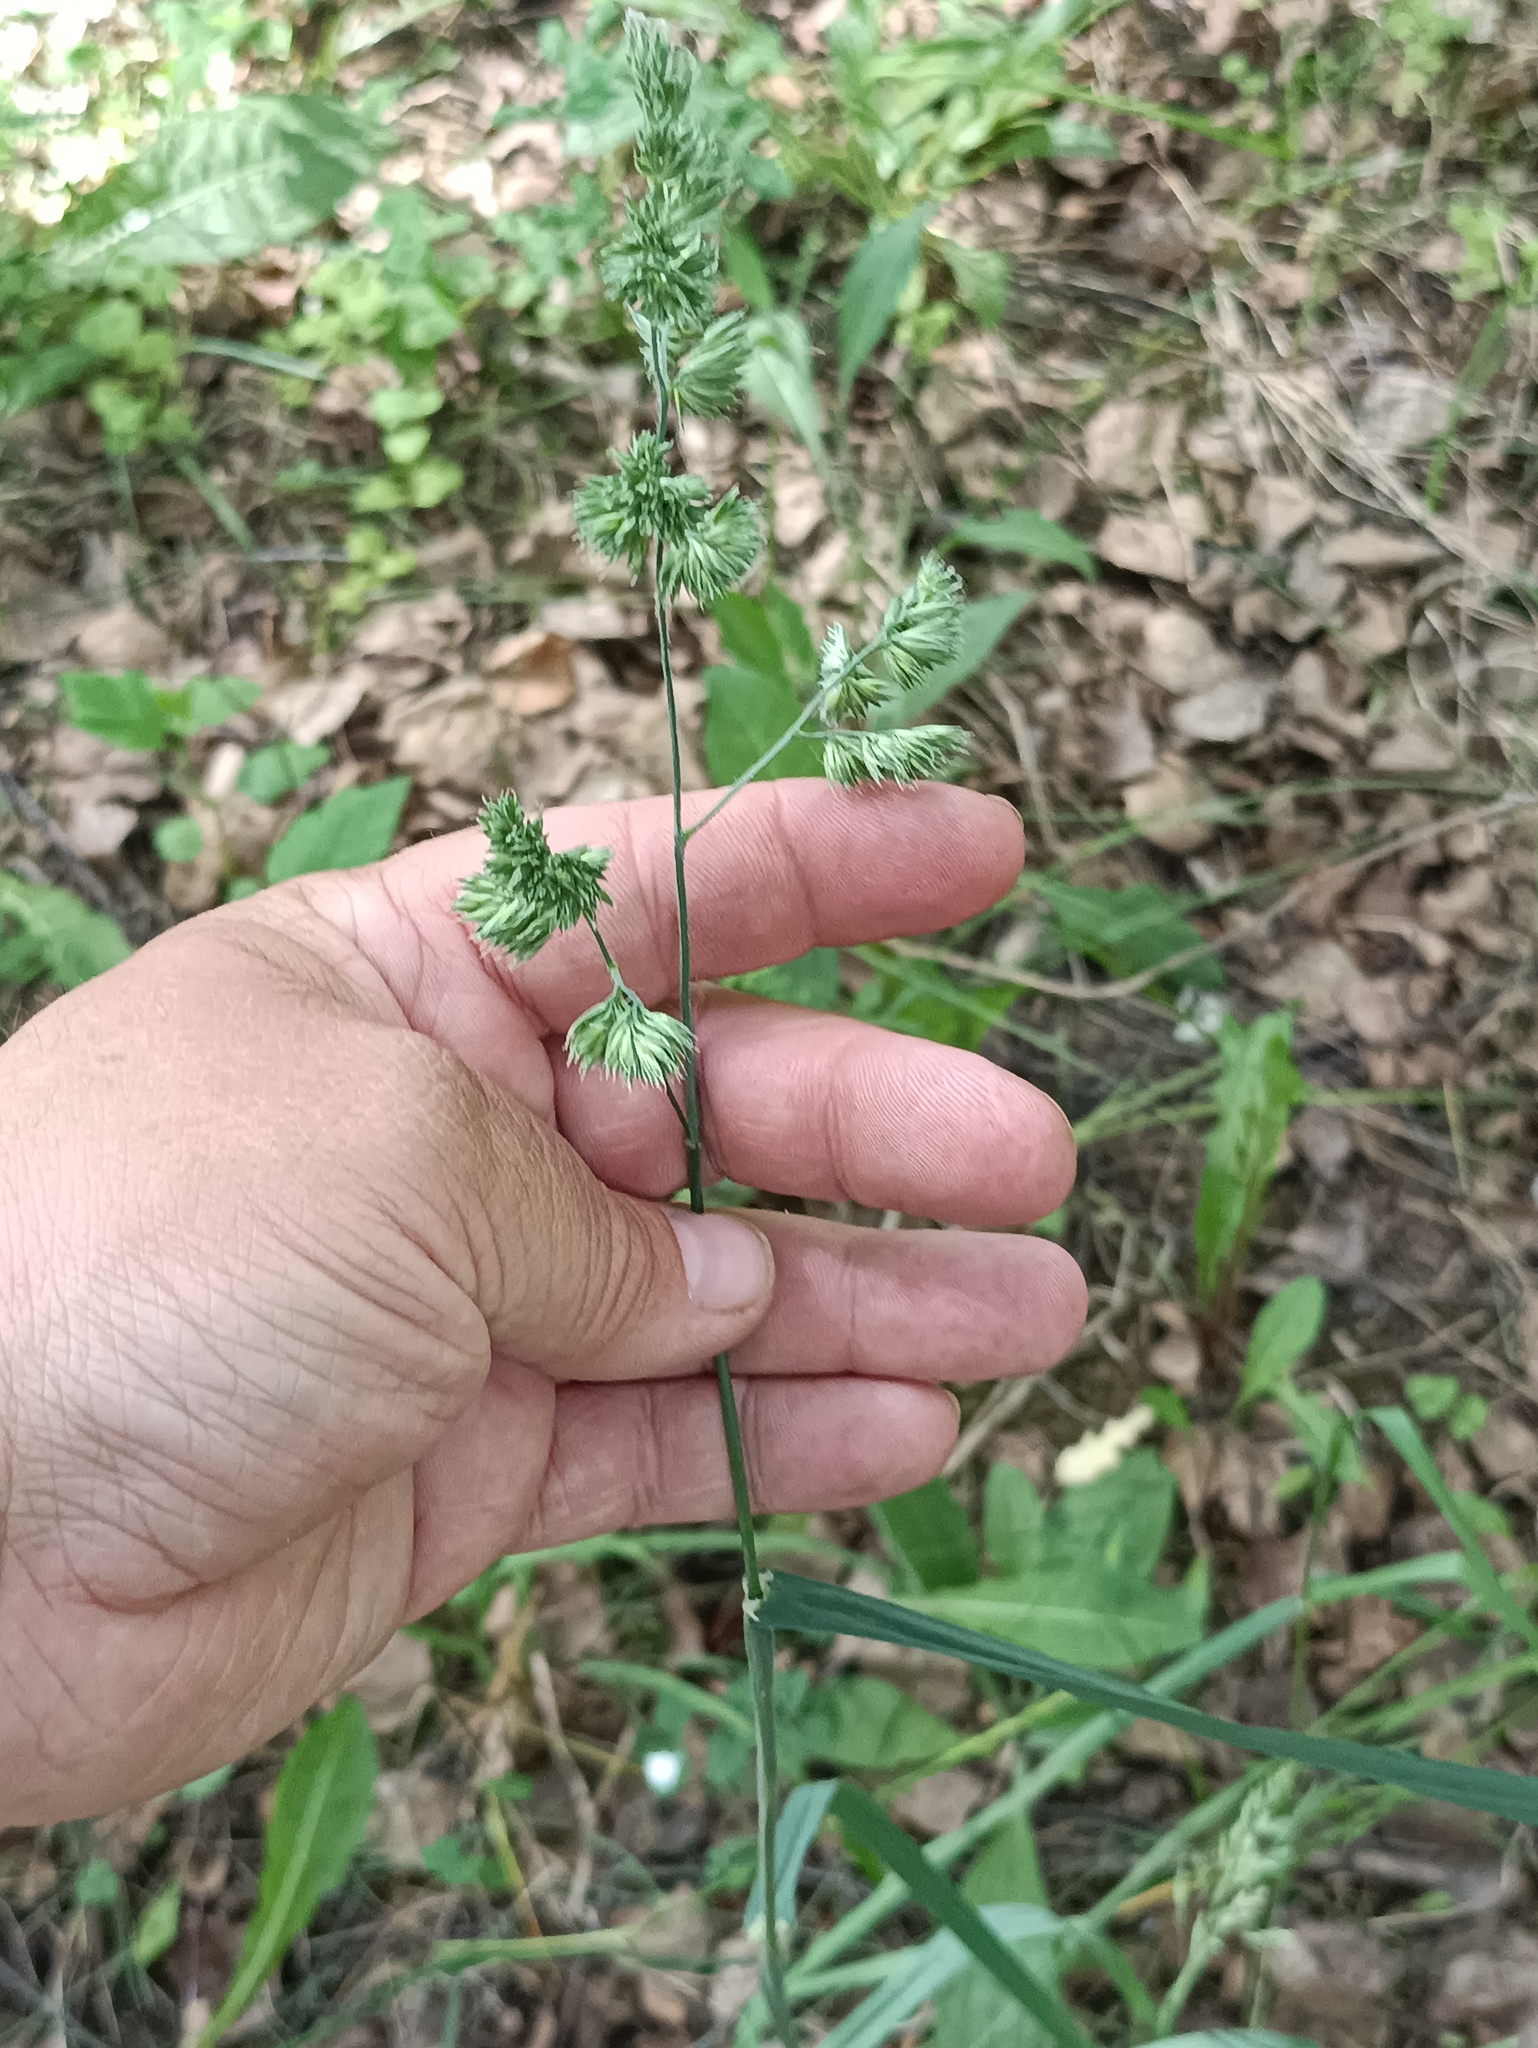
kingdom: Plantae
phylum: Tracheophyta
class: Liliopsida
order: Poales
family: Poaceae
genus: Dactylis
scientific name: Dactylis glomerata
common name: Orchardgrass
